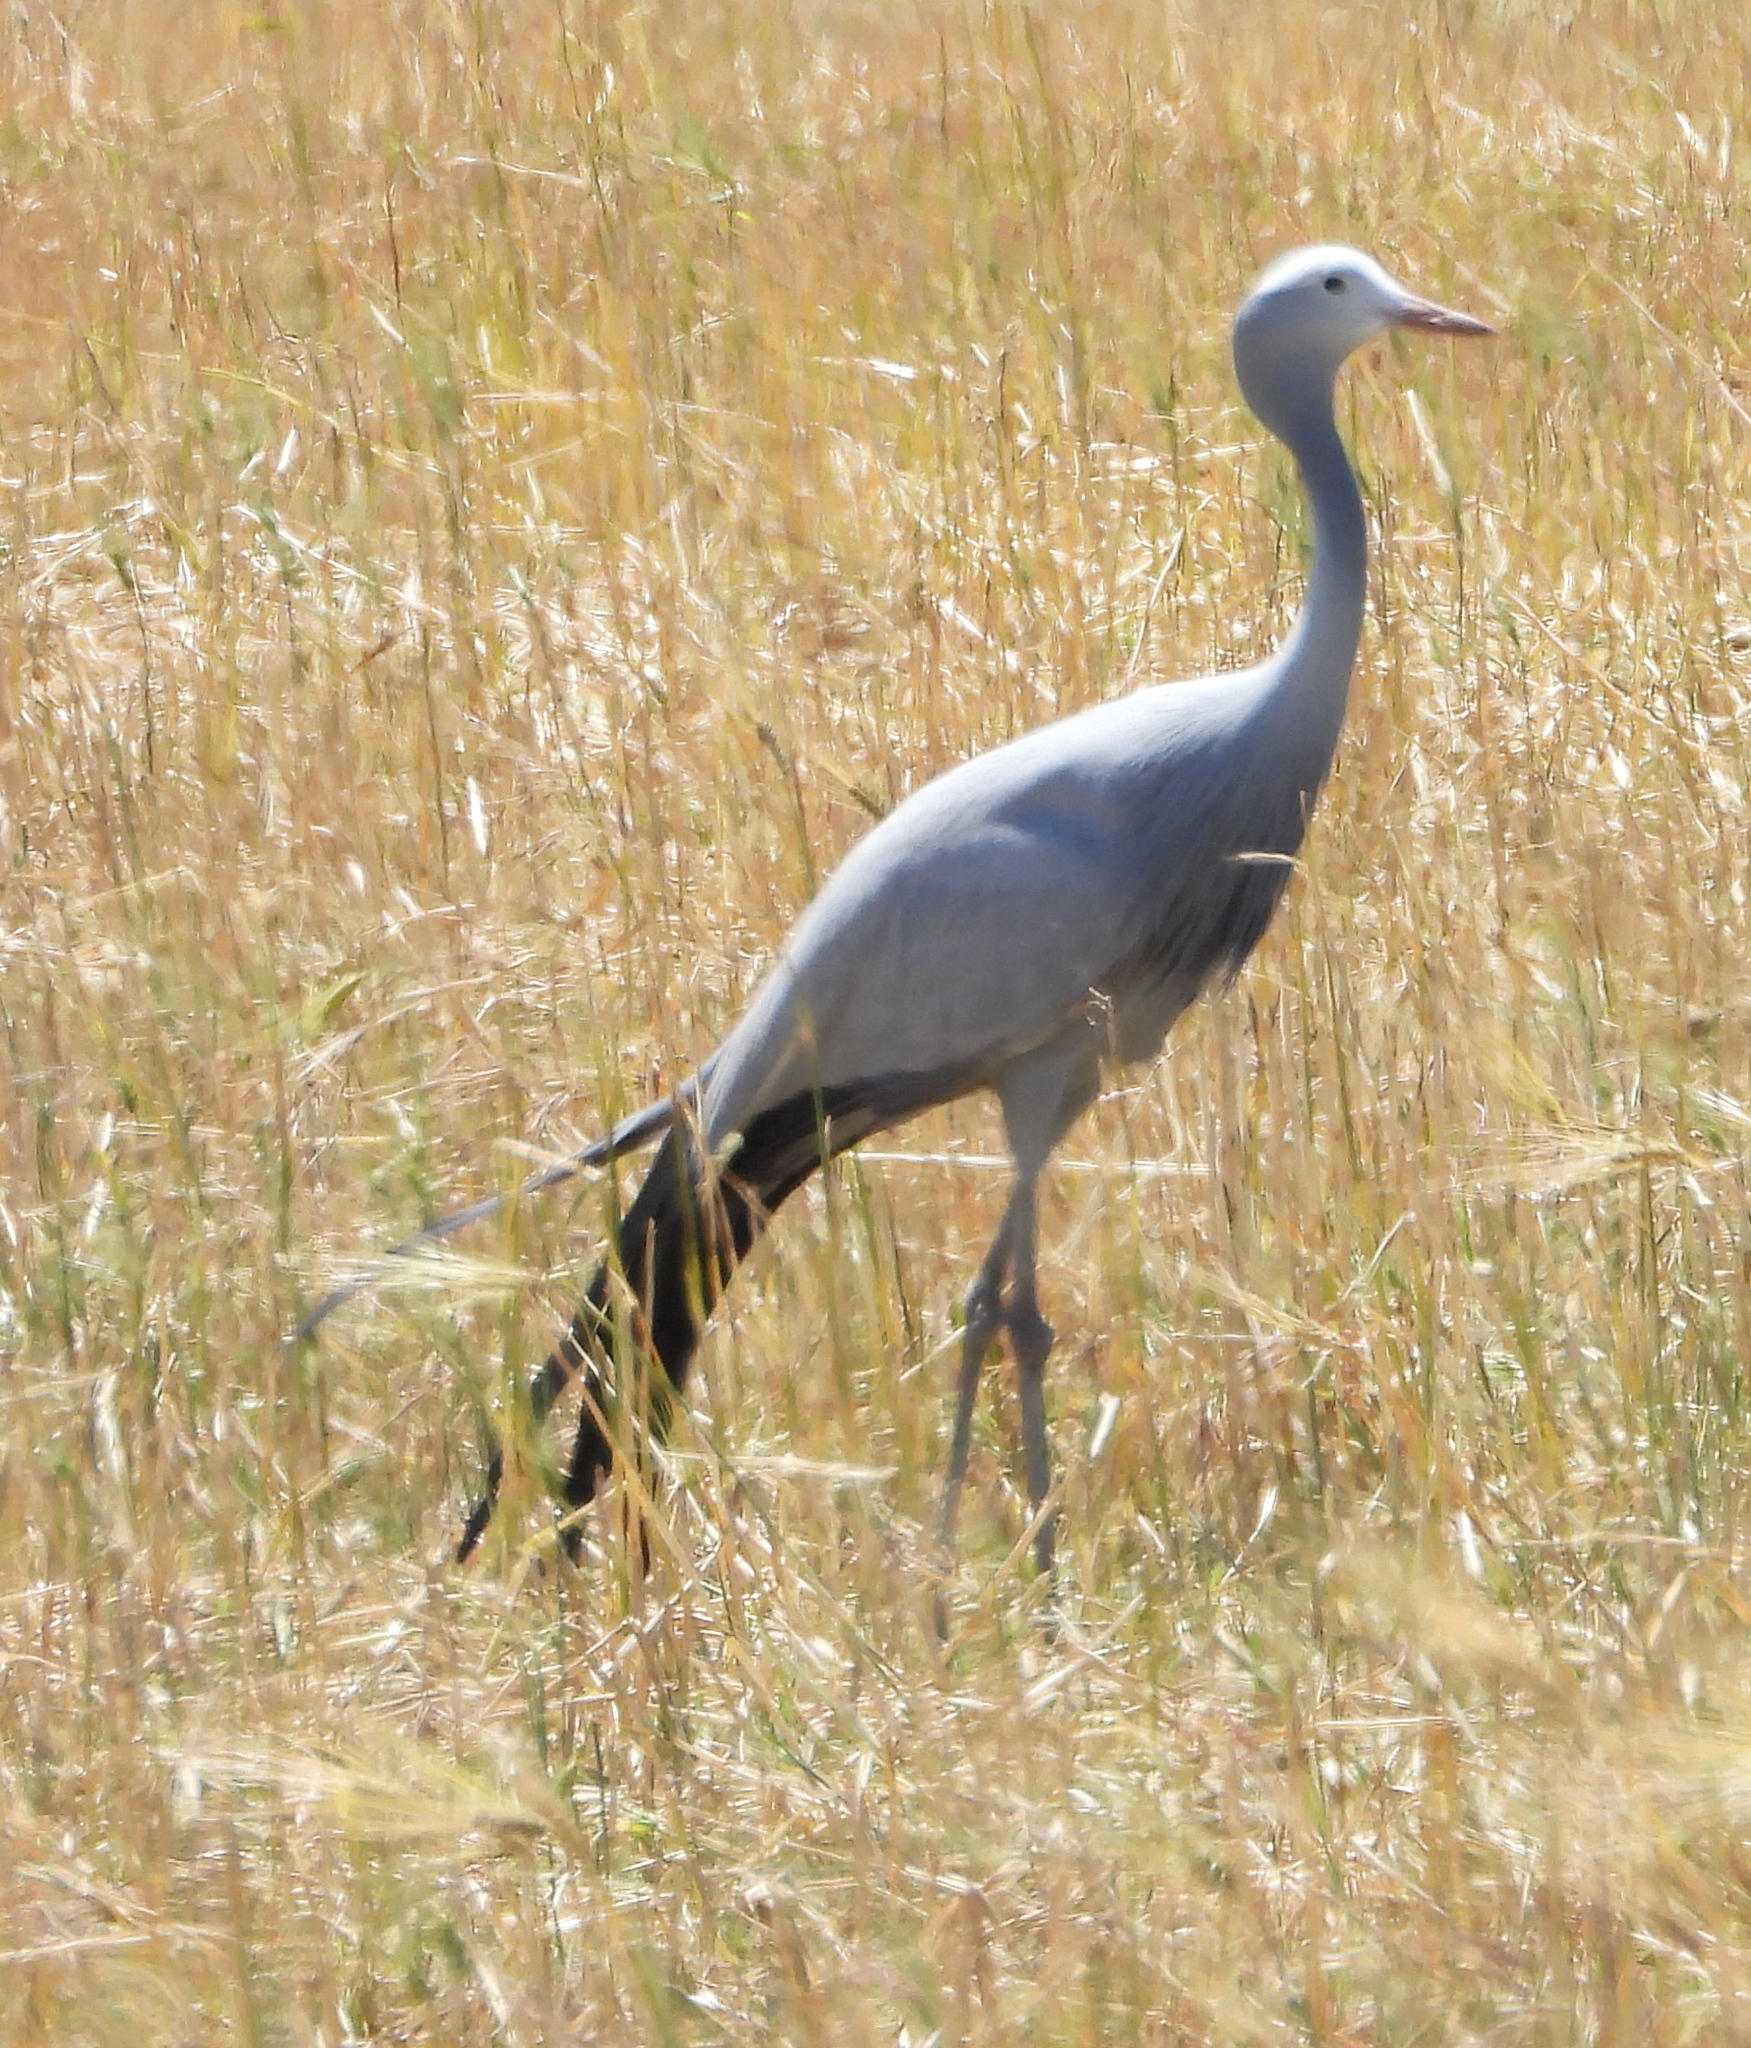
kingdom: Animalia
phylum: Chordata
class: Aves
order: Gruiformes
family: Gruidae
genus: Anthropoides
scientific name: Anthropoides paradiseus
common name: Blue crane
